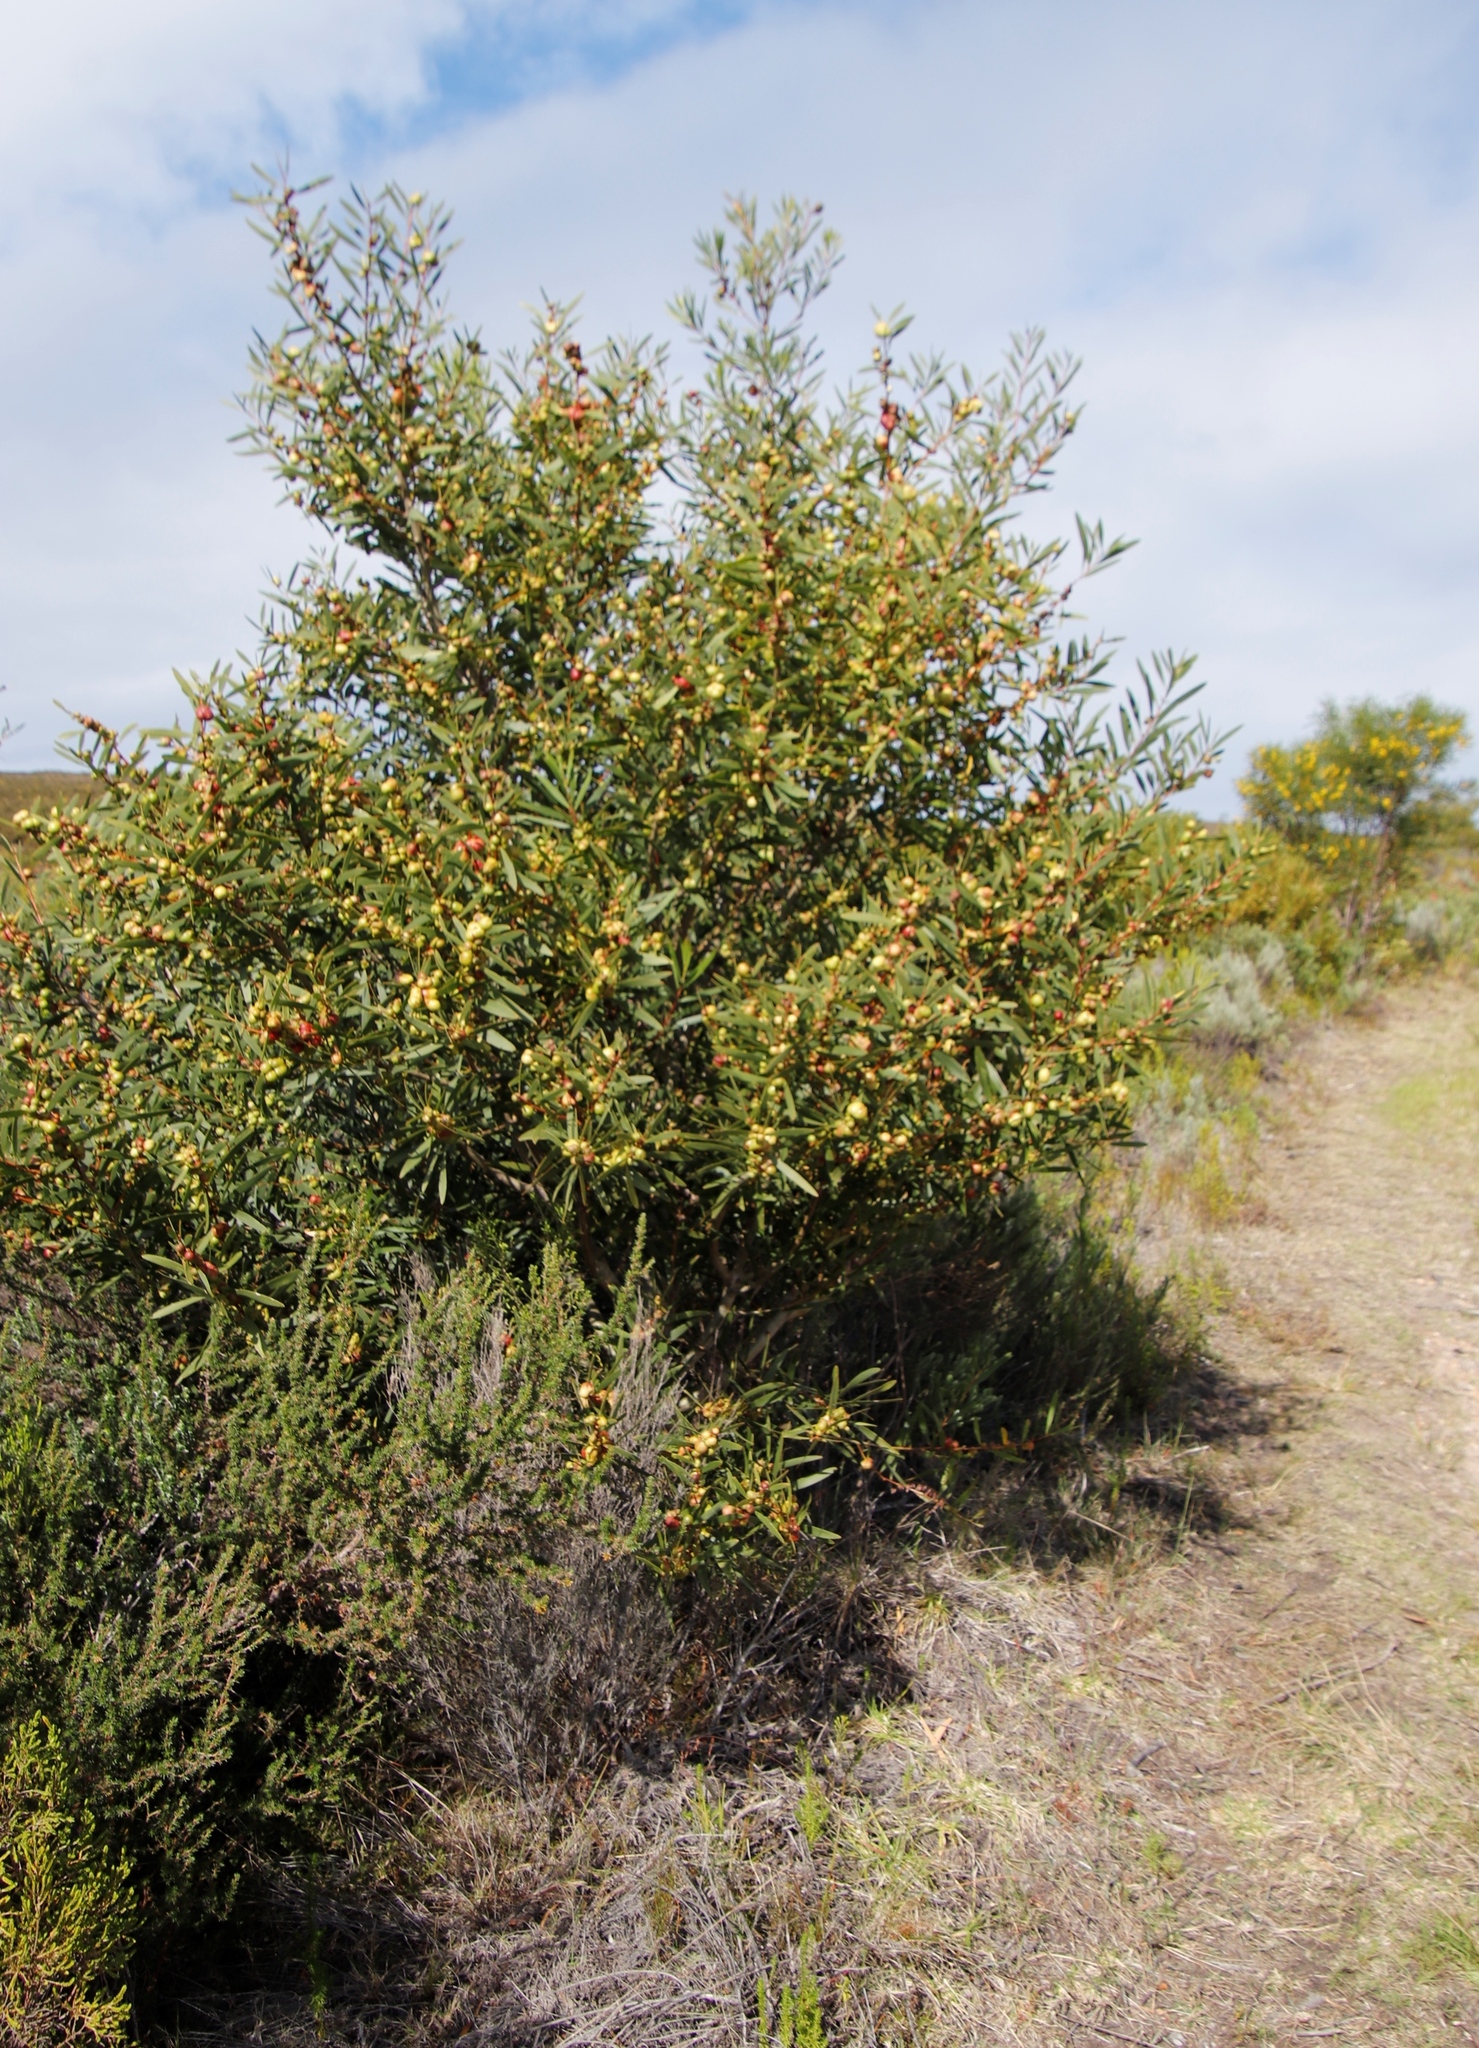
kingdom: Plantae
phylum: Tracheophyta
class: Magnoliopsida
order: Fabales
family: Fabaceae
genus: Acacia
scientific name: Acacia longifolia
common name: Sydney golden wattle
